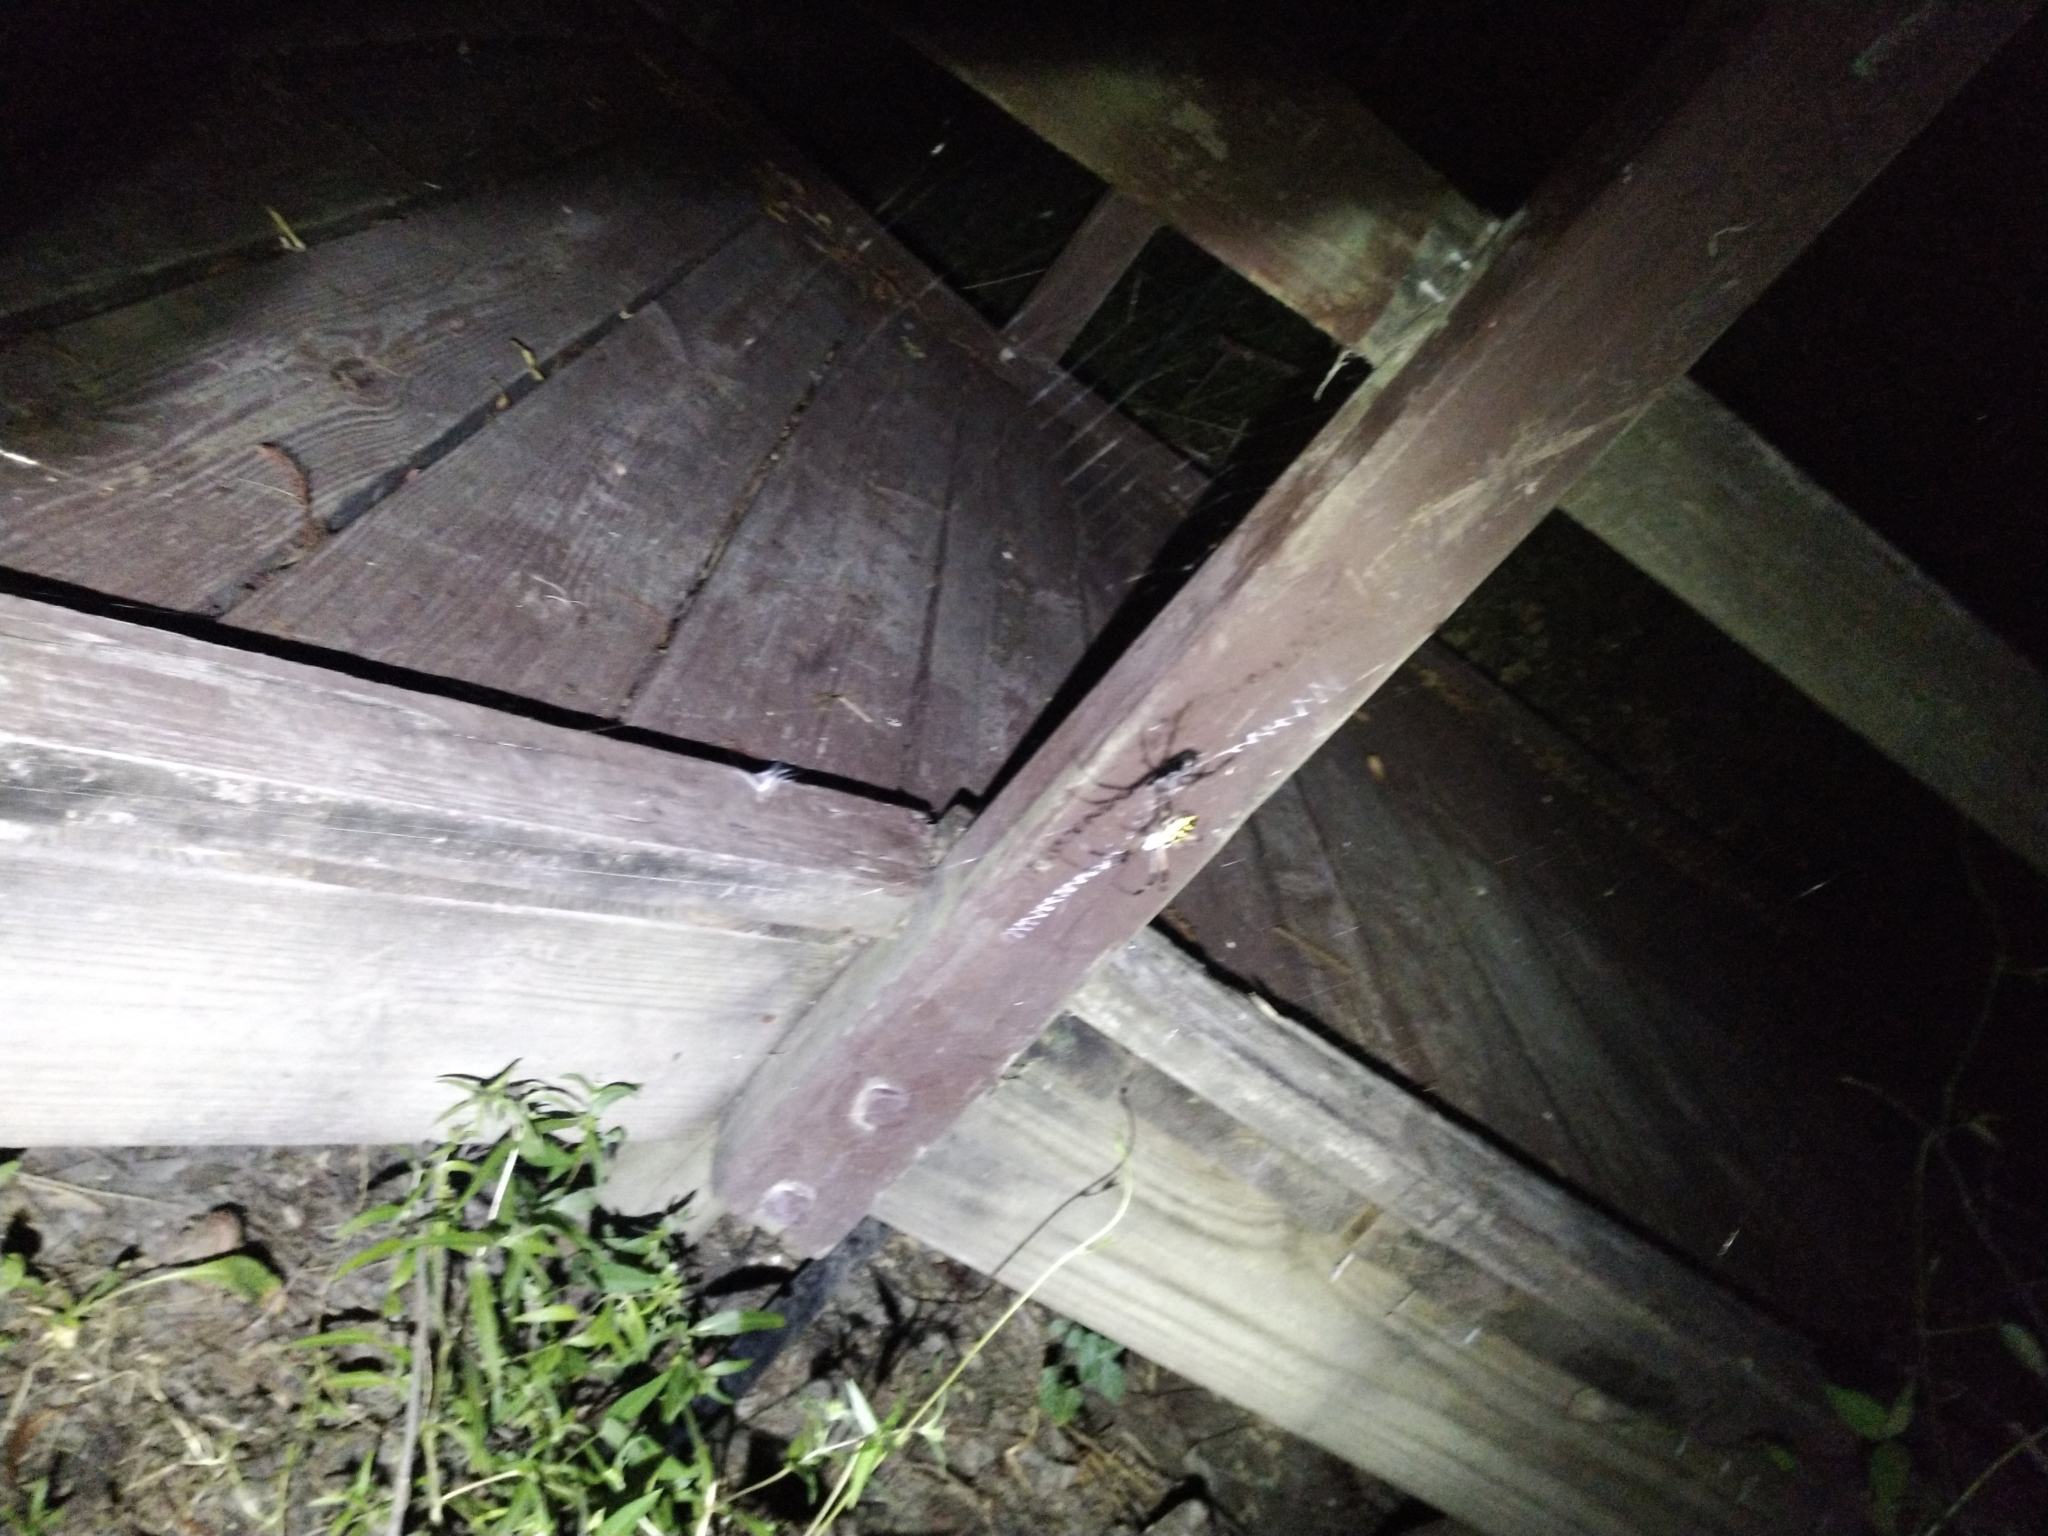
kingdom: Animalia
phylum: Arthropoda
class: Arachnida
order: Araneae
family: Araneidae
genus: Argiope
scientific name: Argiope aurantia
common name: Orb weavers
